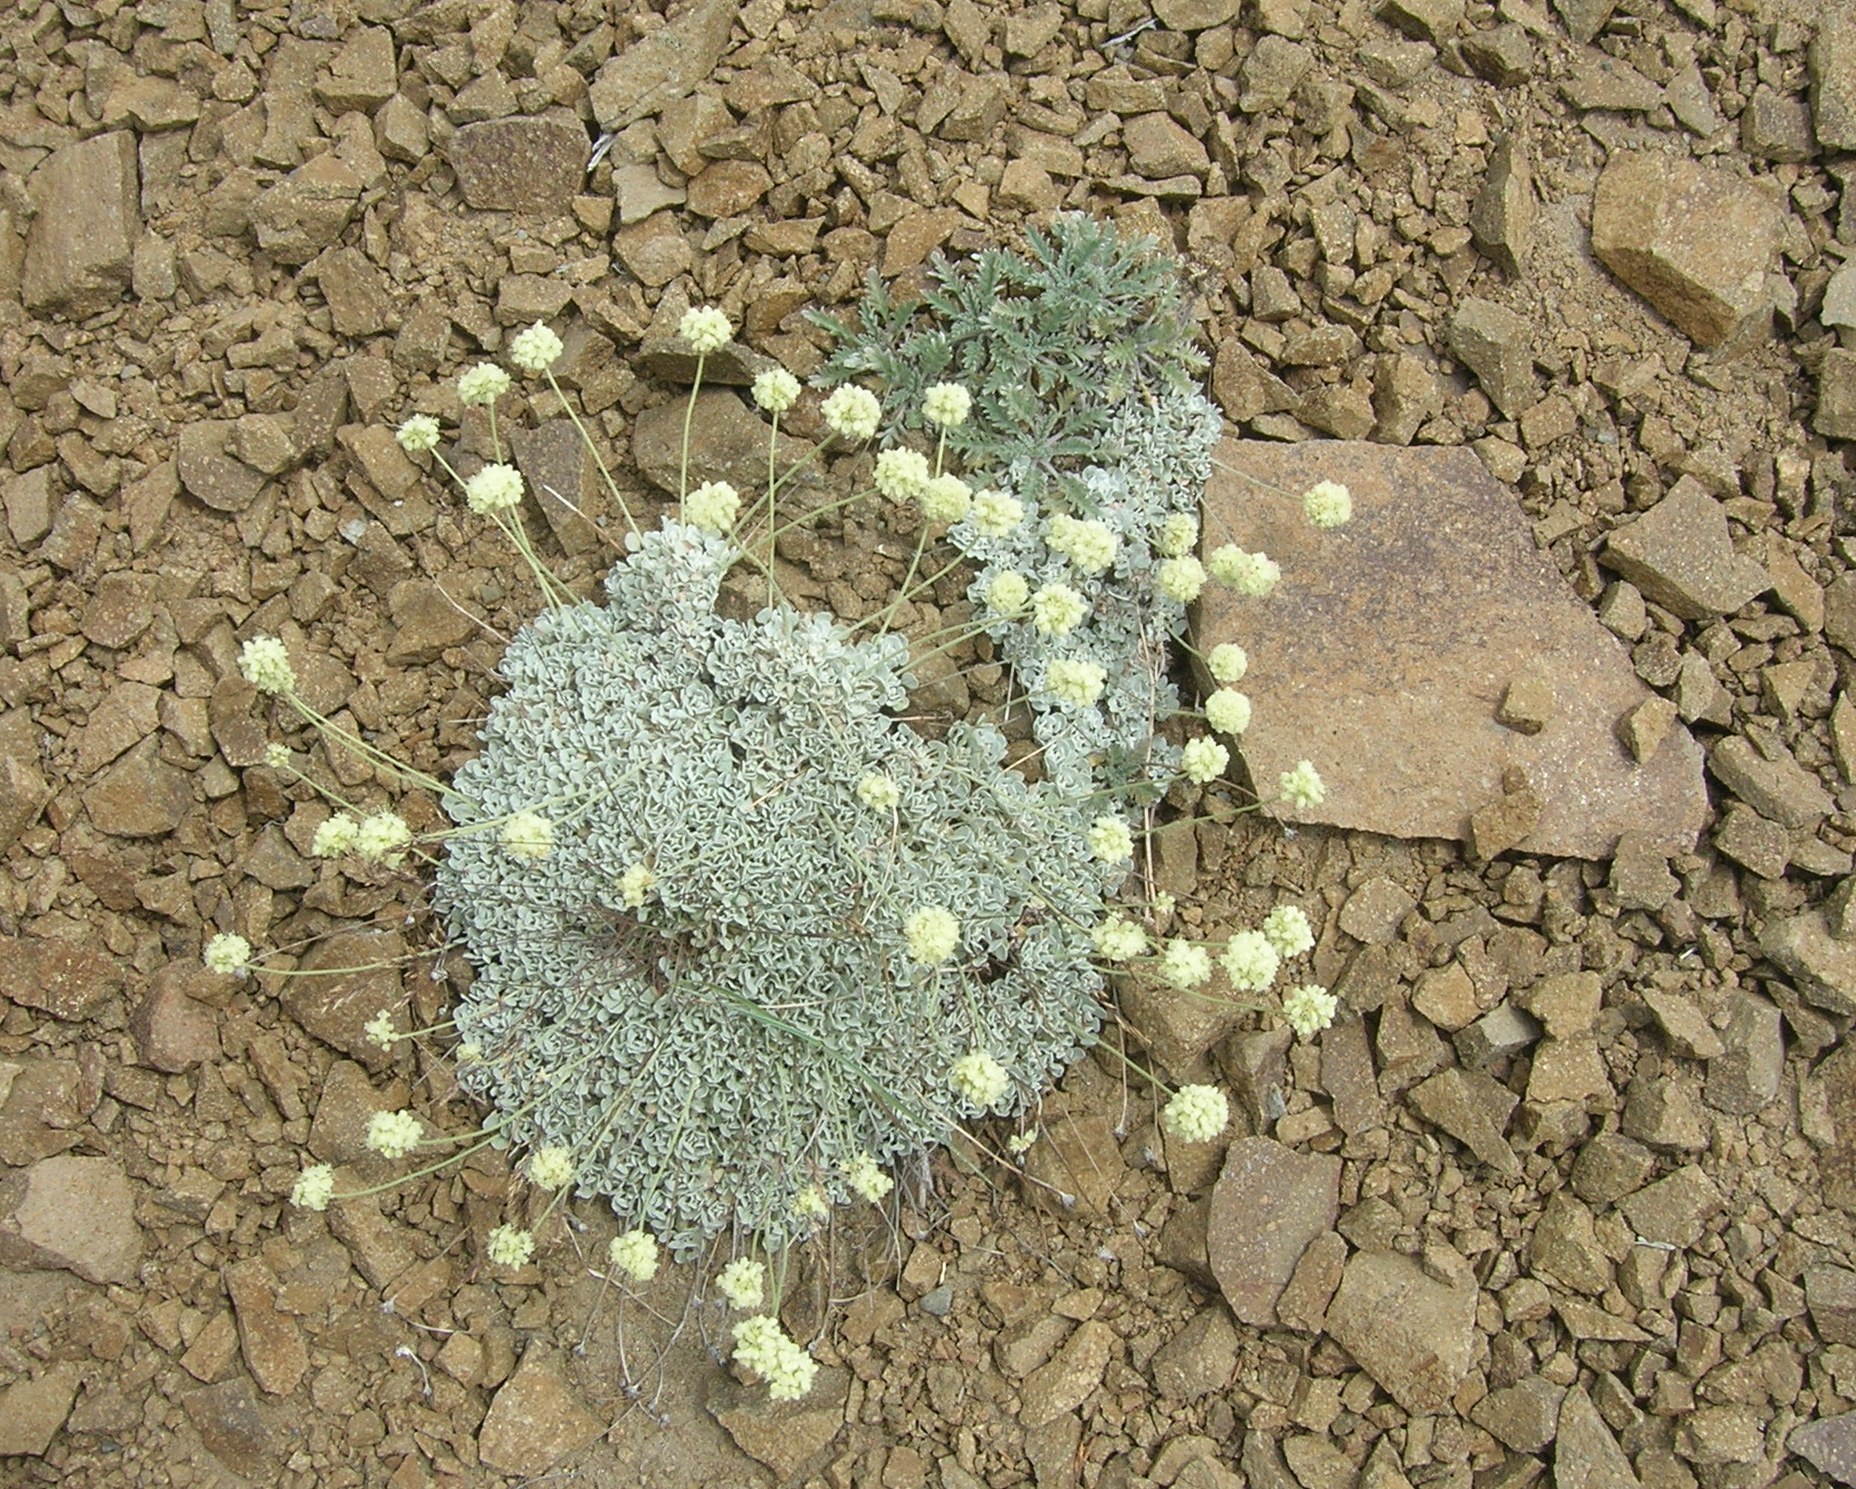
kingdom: Plantae
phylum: Tracheophyta
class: Magnoliopsida
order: Caryophyllales
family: Polygonaceae
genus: Eriogonum
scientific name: Eriogonum ovalifolium
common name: Cushion buckwheat
